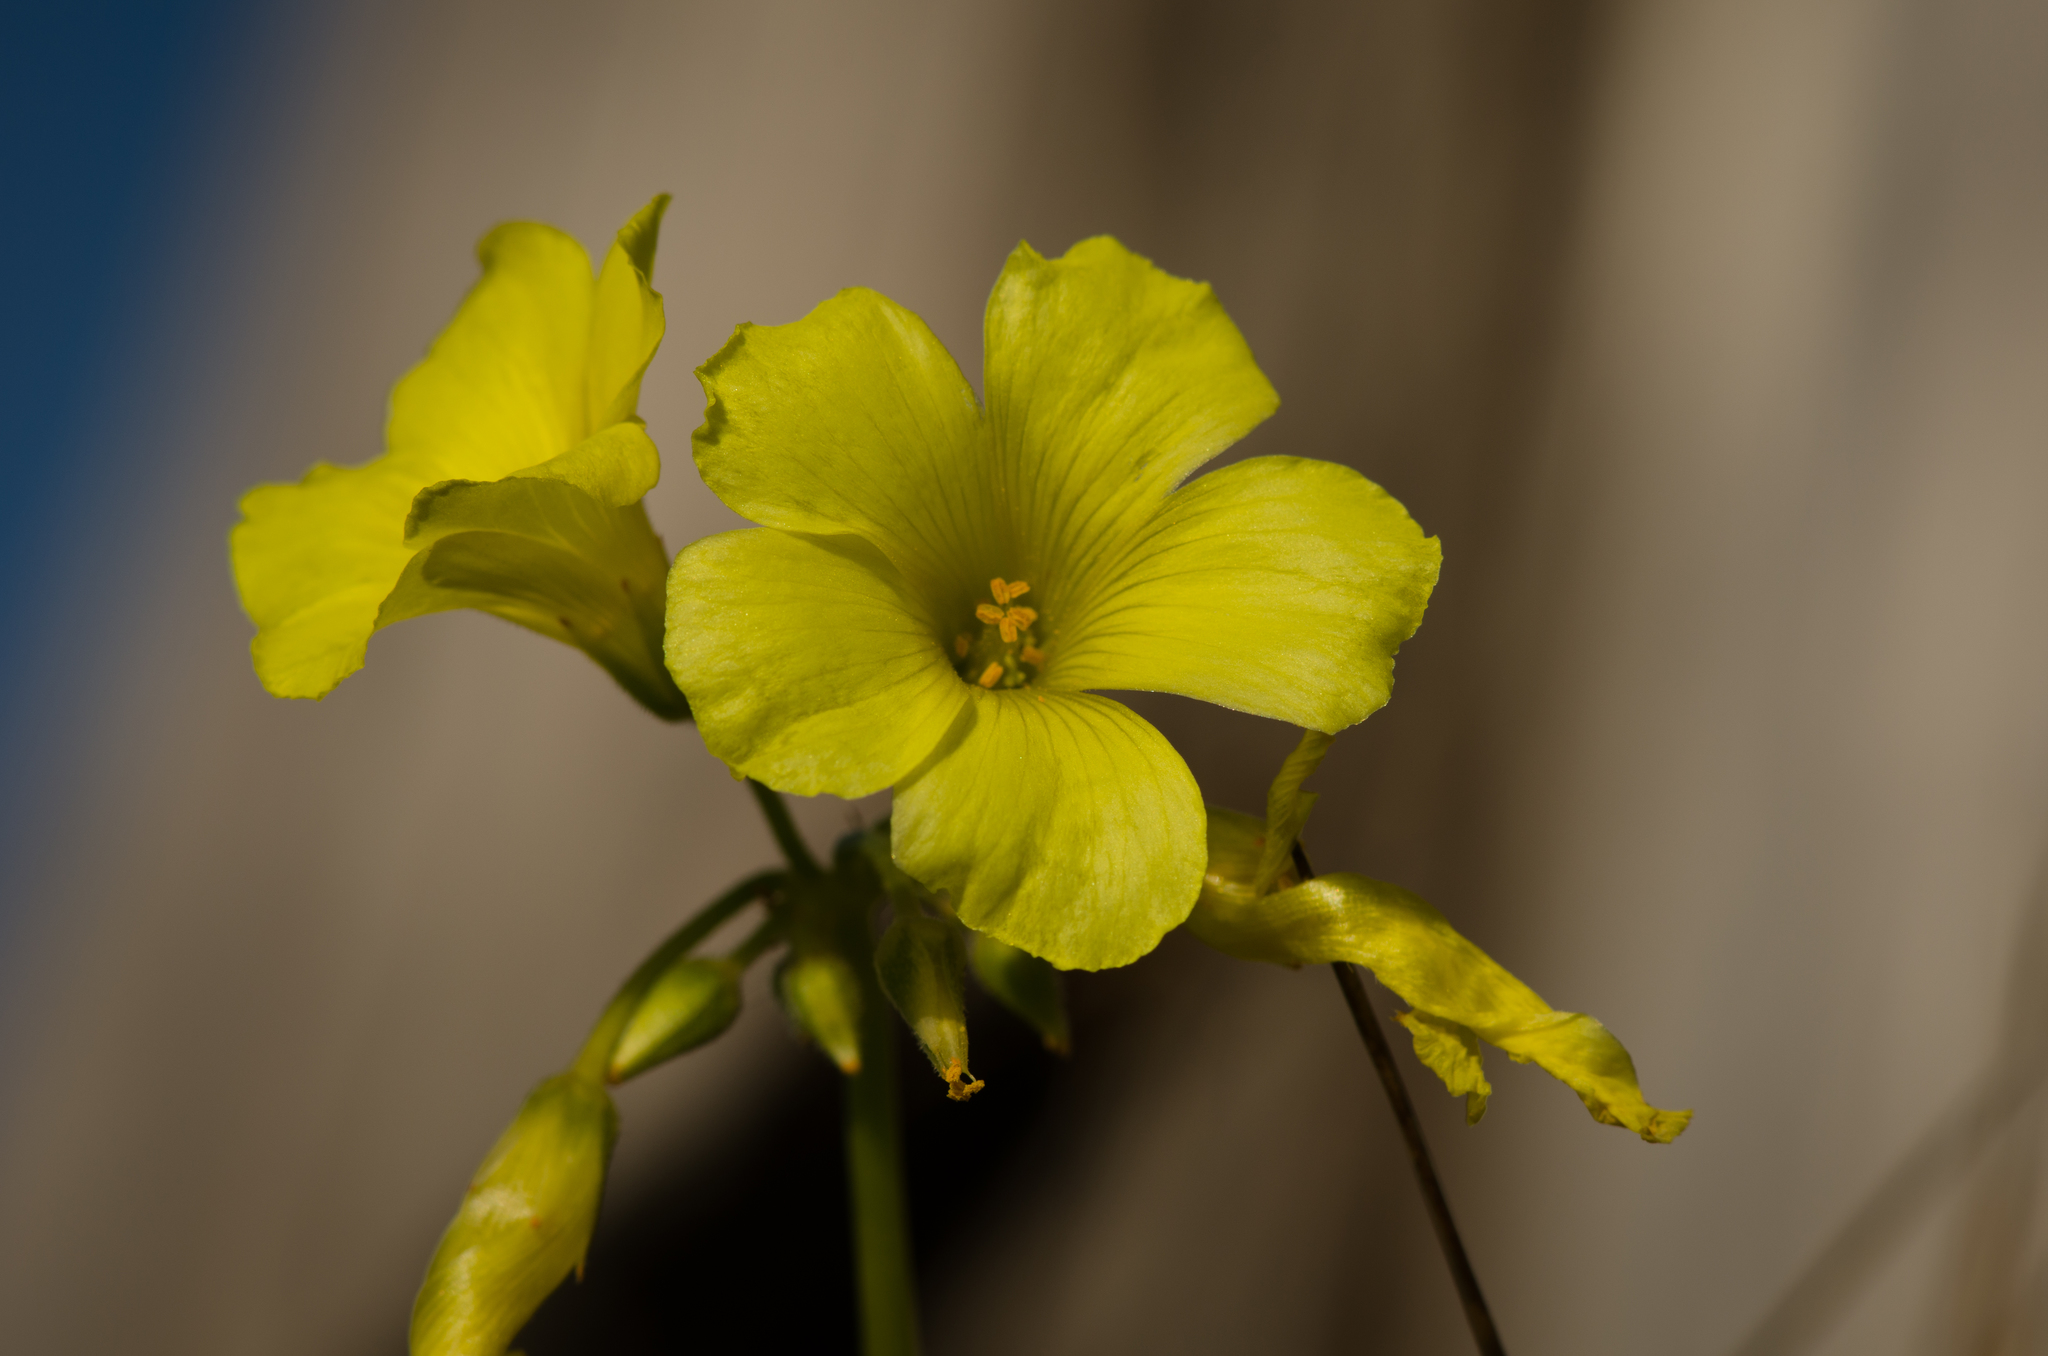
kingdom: Plantae
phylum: Tracheophyta
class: Magnoliopsida
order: Oxalidales
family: Oxalidaceae
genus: Oxalis
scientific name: Oxalis pes-caprae
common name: Bermuda-buttercup
